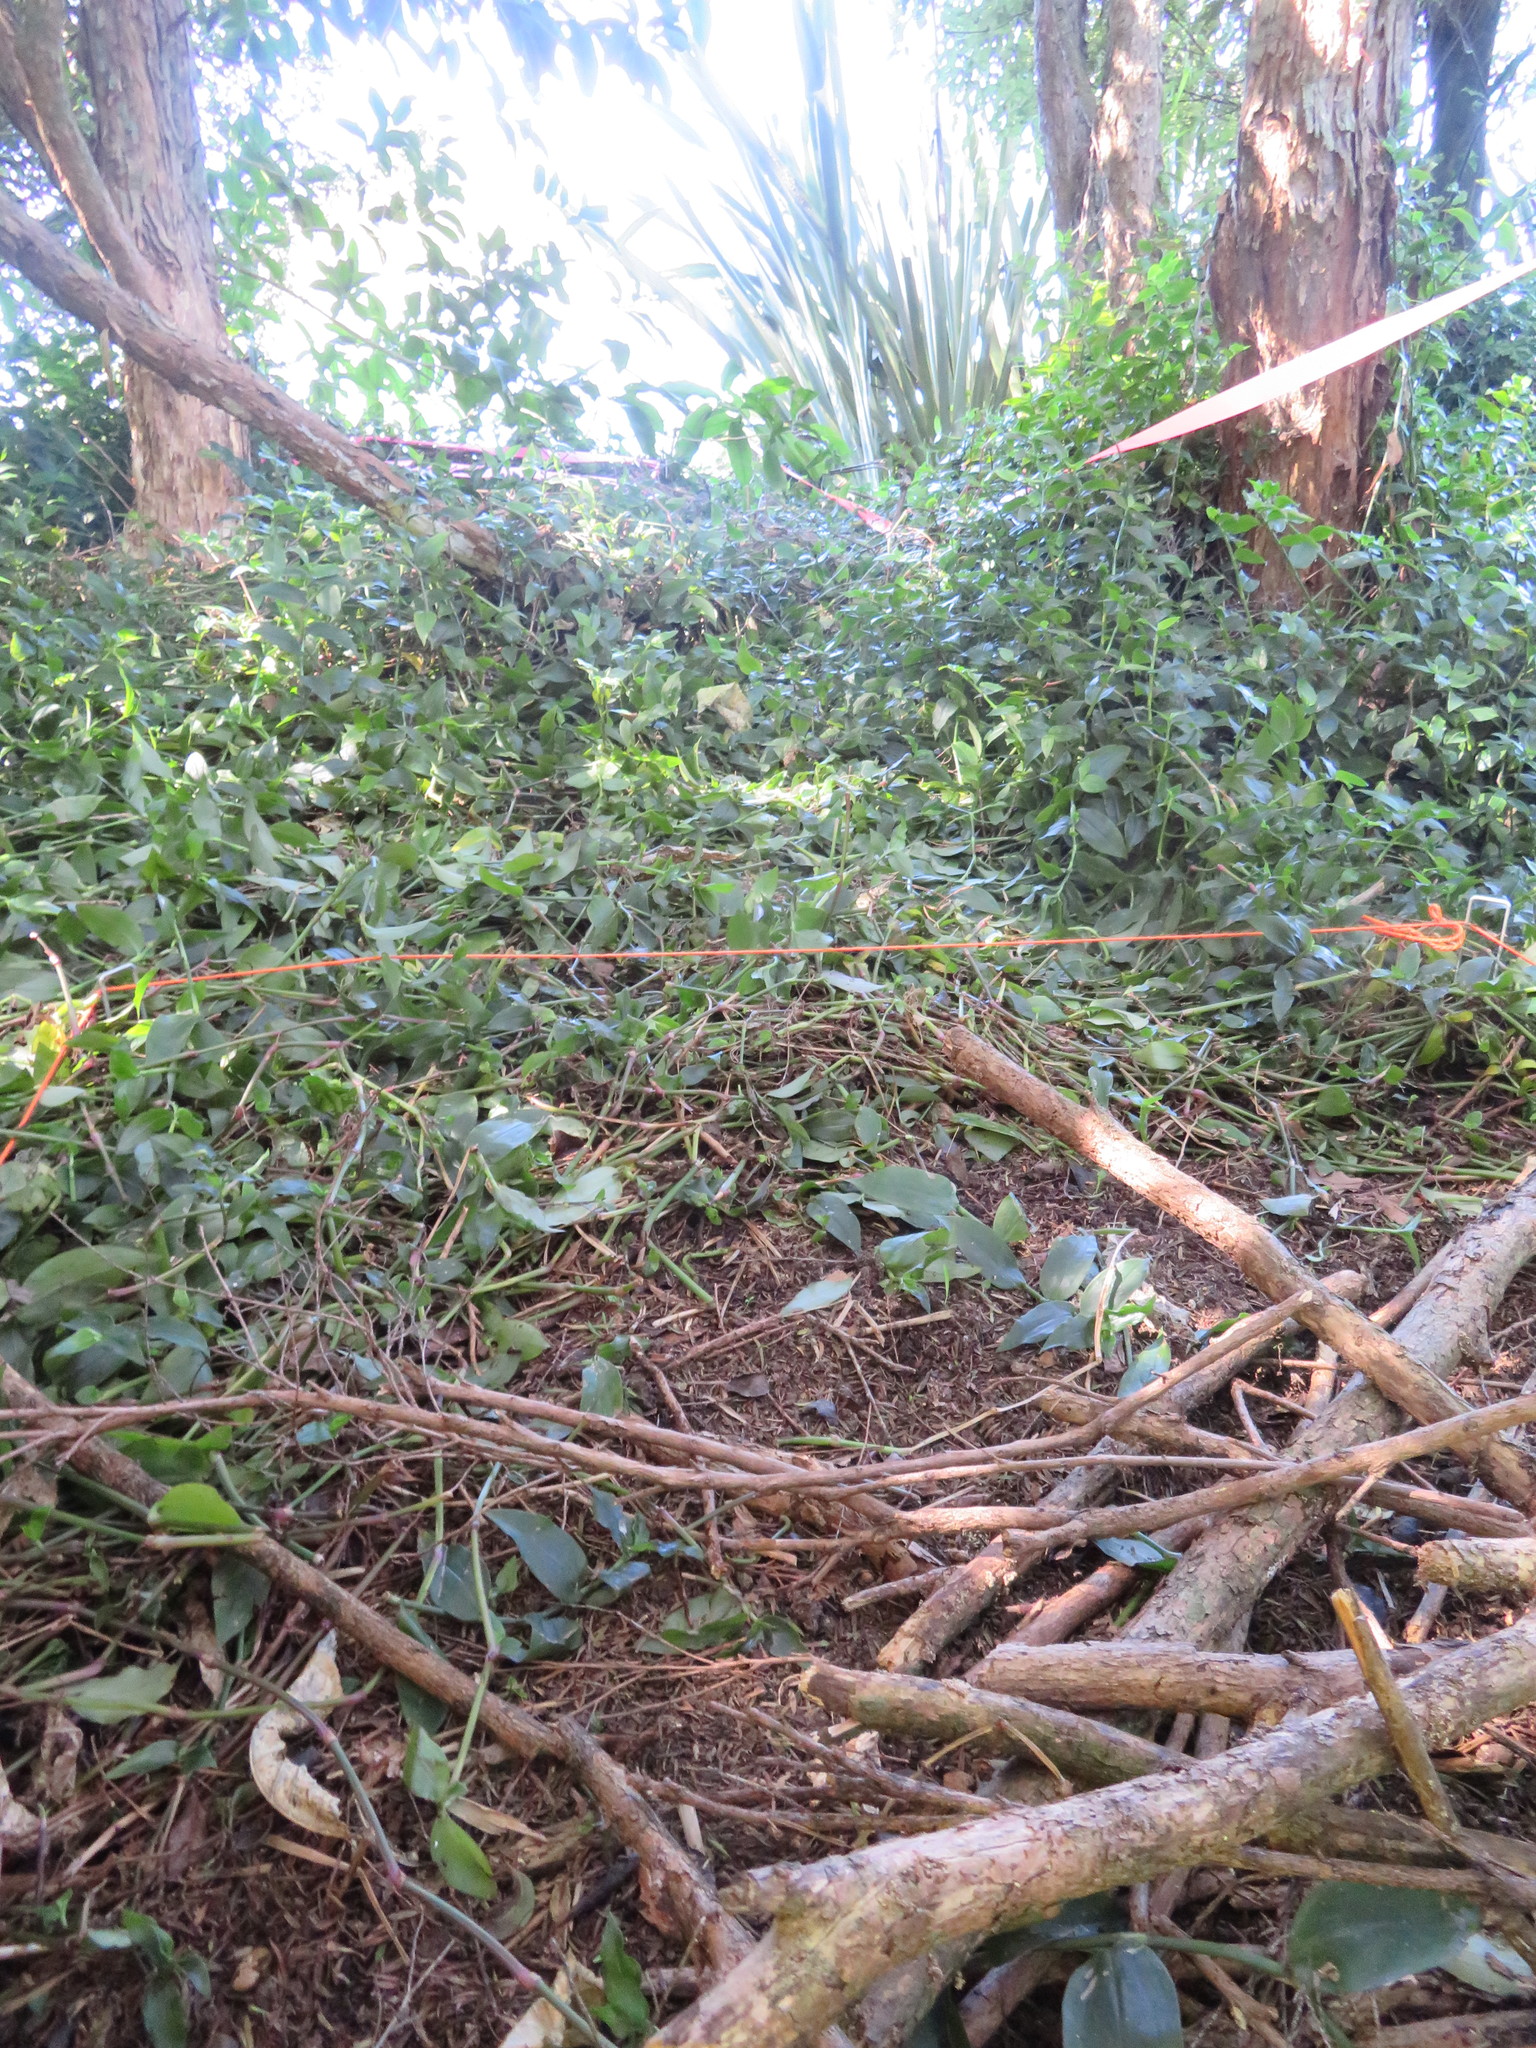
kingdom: Plantae
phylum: Tracheophyta
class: Liliopsida
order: Commelinales
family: Commelinaceae
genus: Tradescantia
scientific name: Tradescantia fluminensis
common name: Wandering-jew
